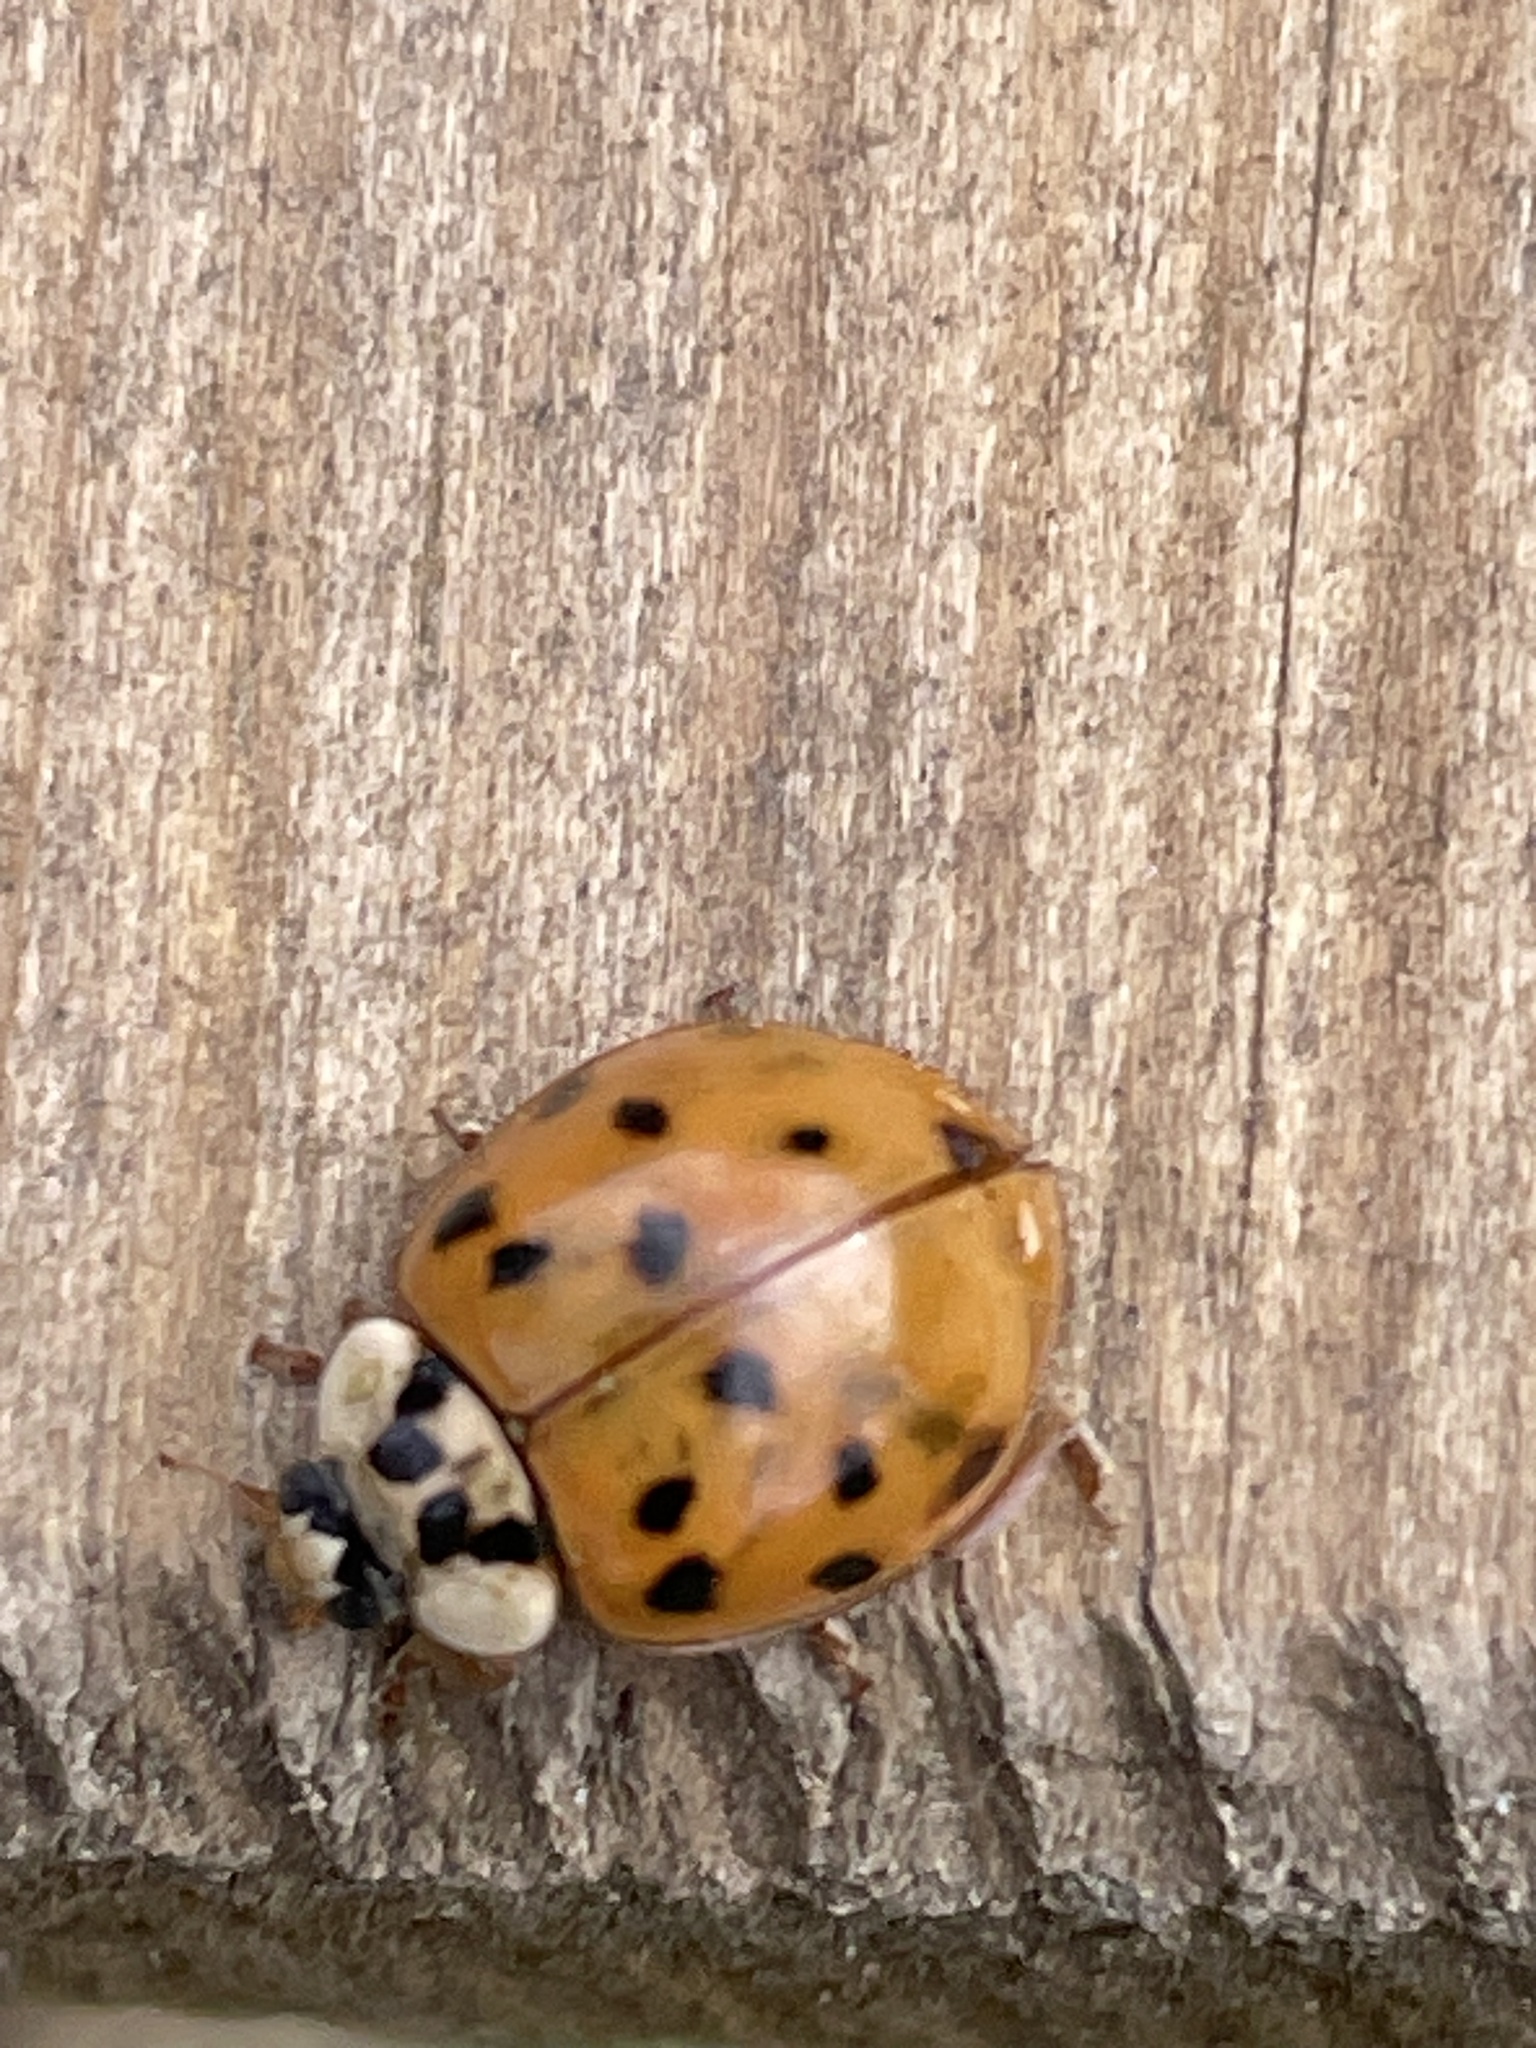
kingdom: Animalia
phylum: Arthropoda
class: Insecta
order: Coleoptera
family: Coccinellidae
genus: Harmonia
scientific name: Harmonia axyridis
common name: Harlequin ladybird
